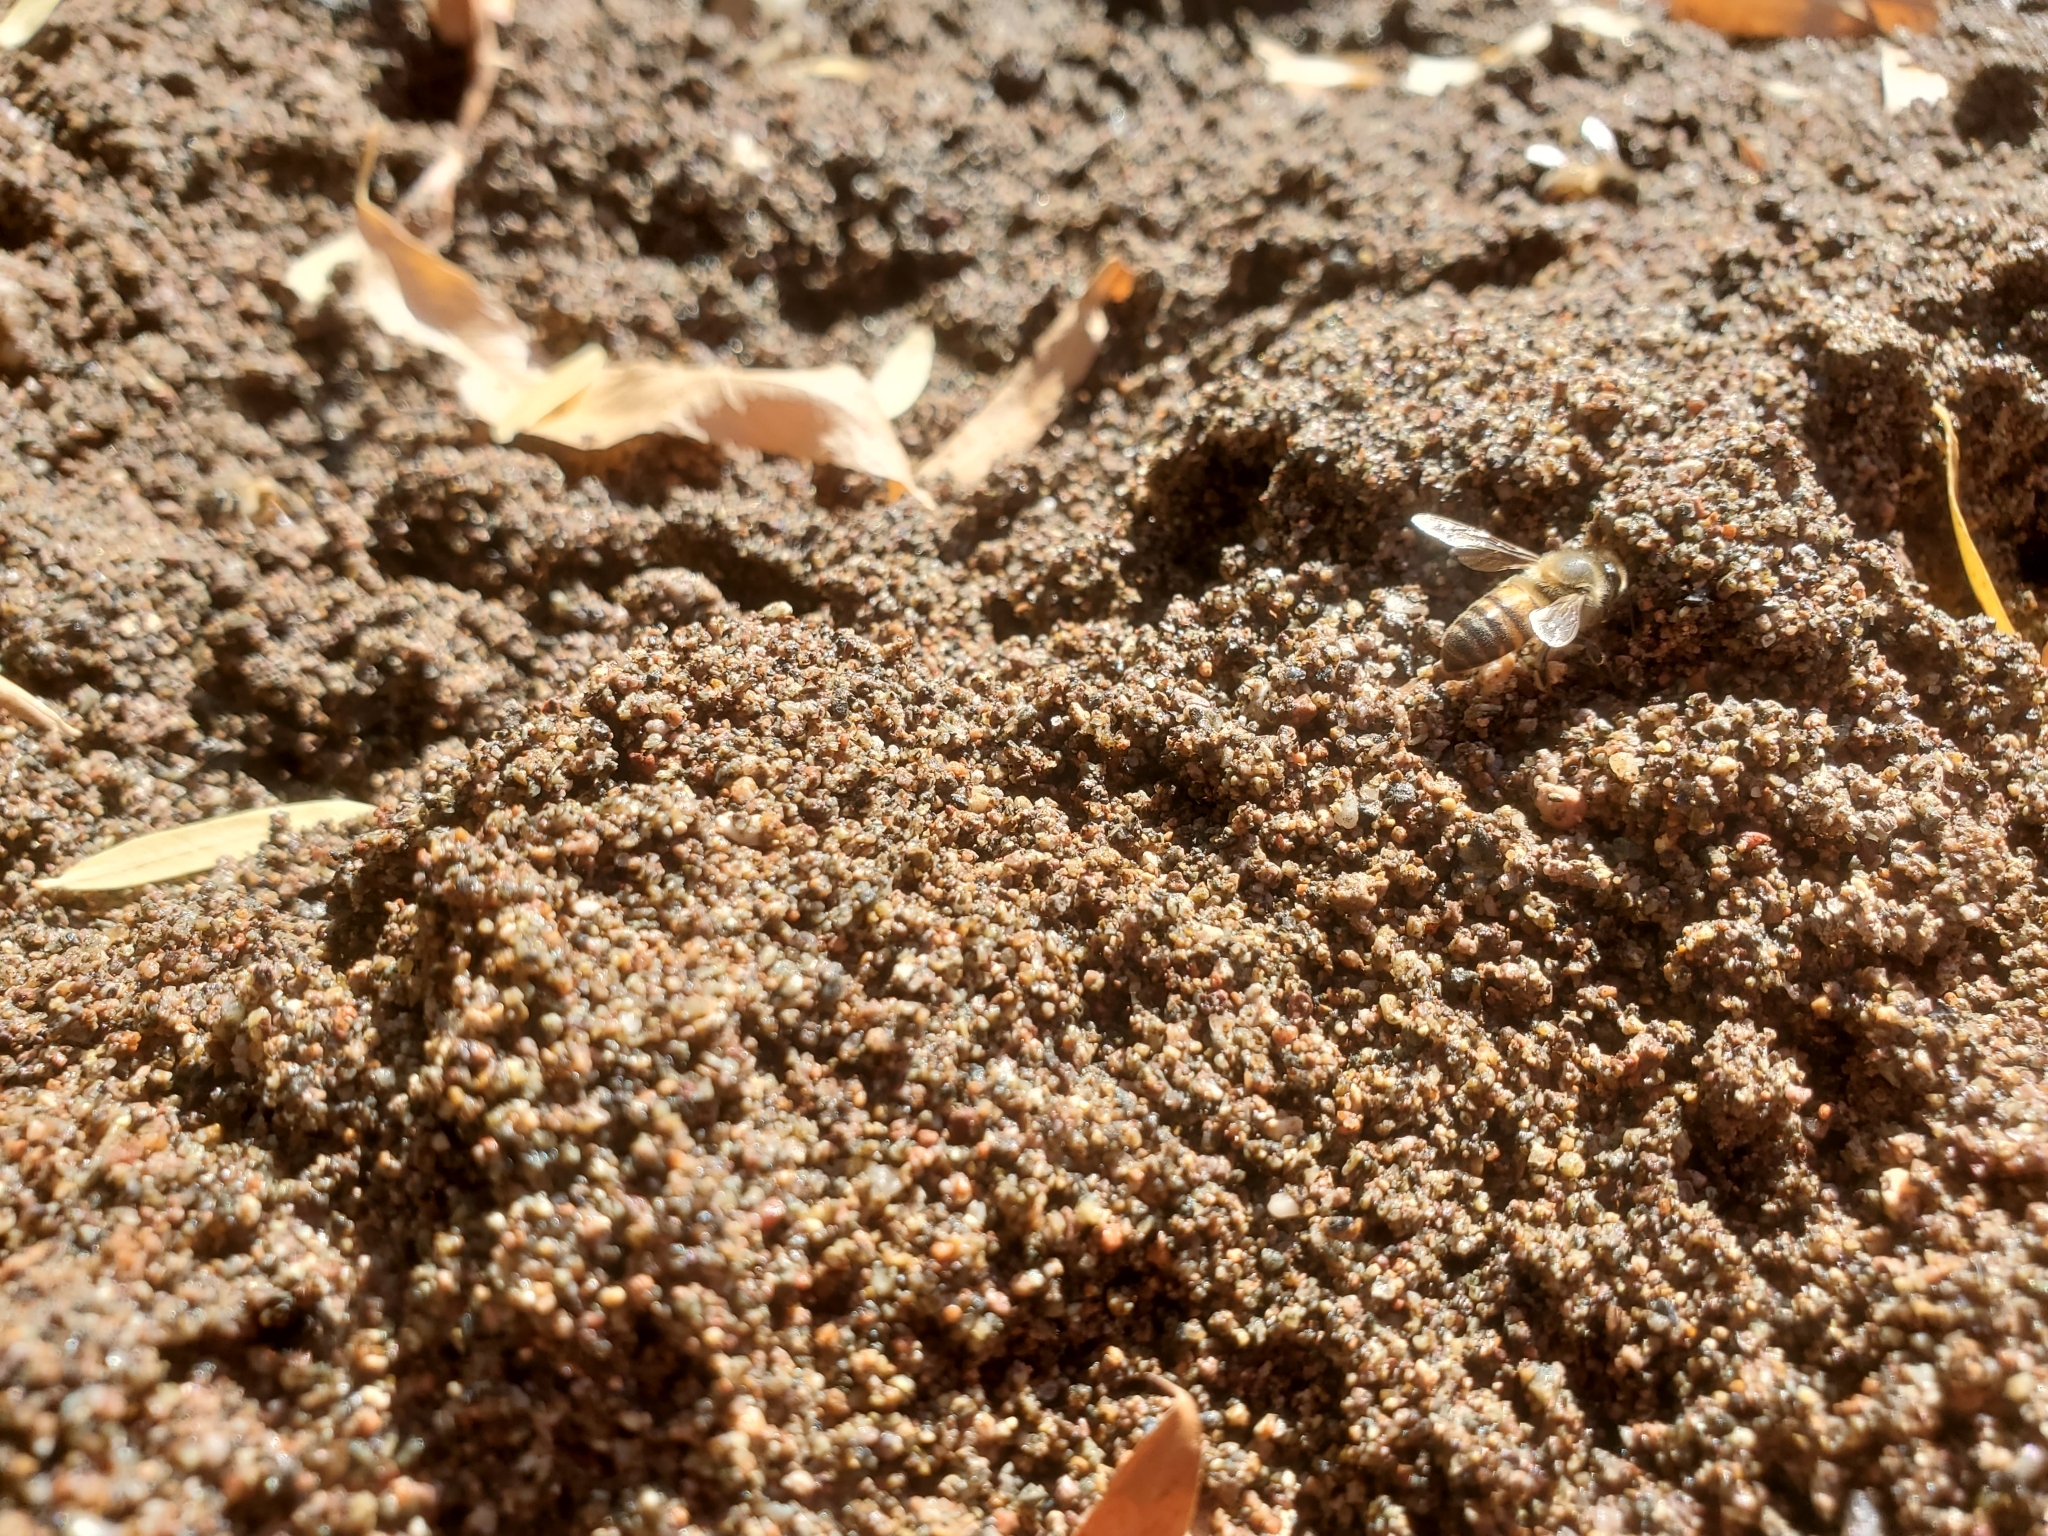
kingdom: Animalia
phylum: Arthropoda
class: Insecta
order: Hymenoptera
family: Apidae
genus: Apis
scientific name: Apis mellifera
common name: Honey bee
